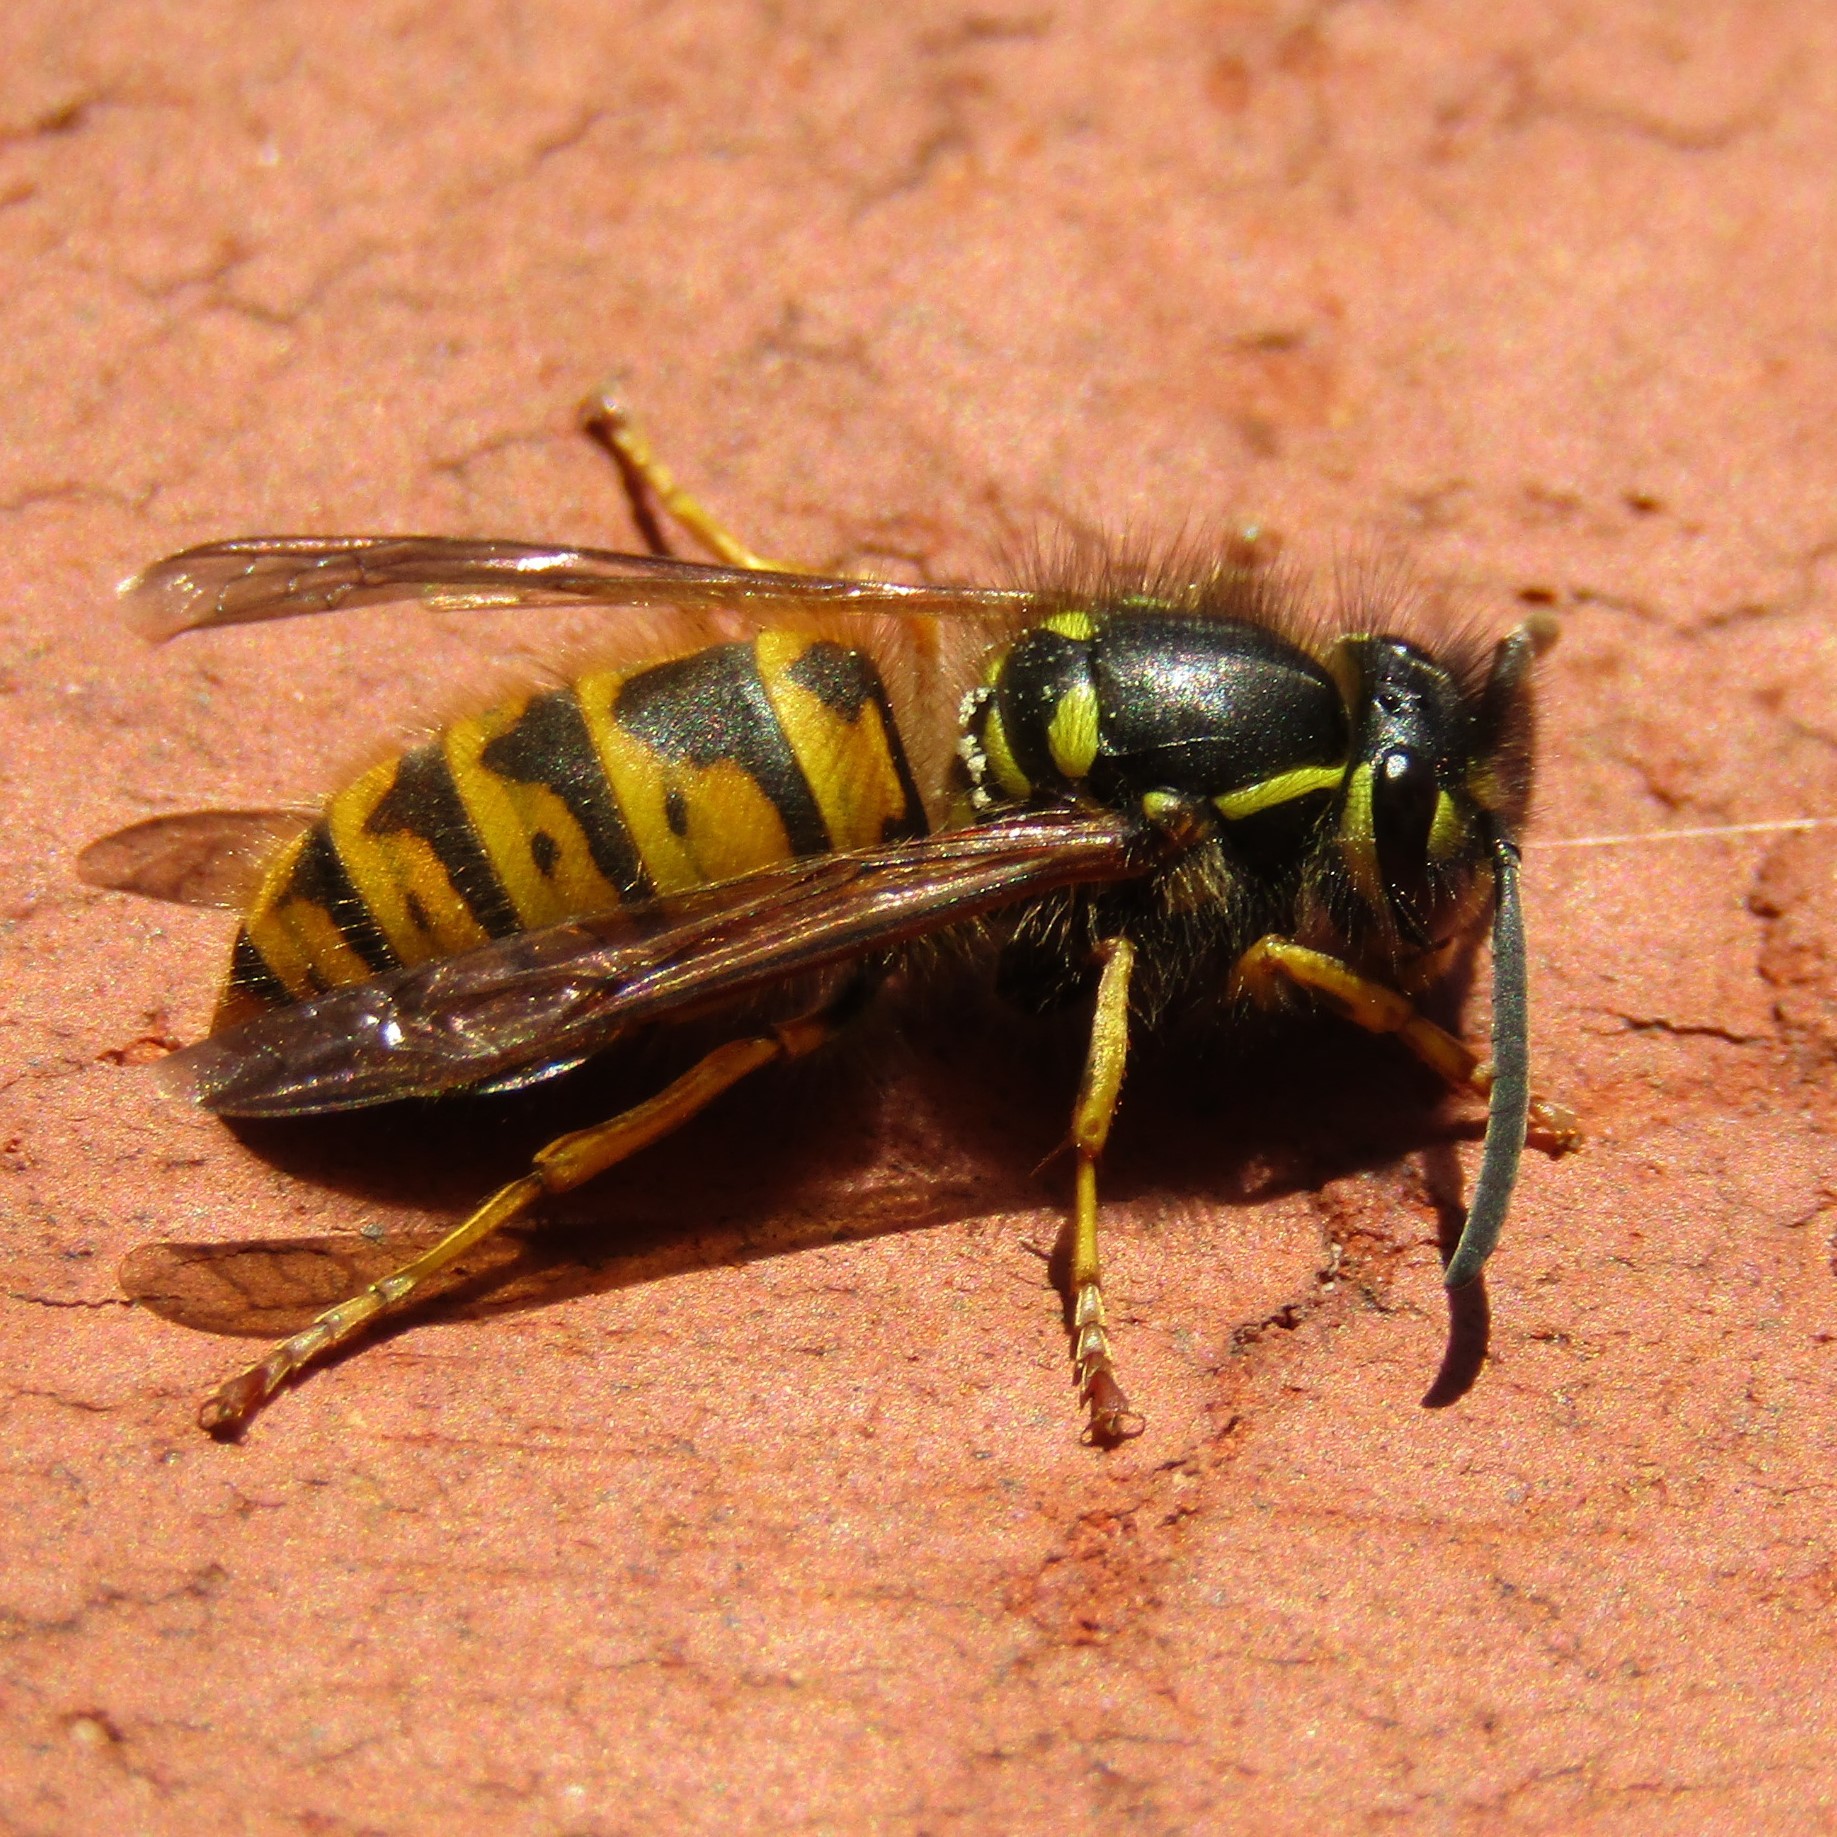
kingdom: Animalia
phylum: Arthropoda
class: Insecta
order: Hymenoptera
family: Vespidae
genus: Vespula
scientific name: Vespula vulgaris
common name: Common wasp
